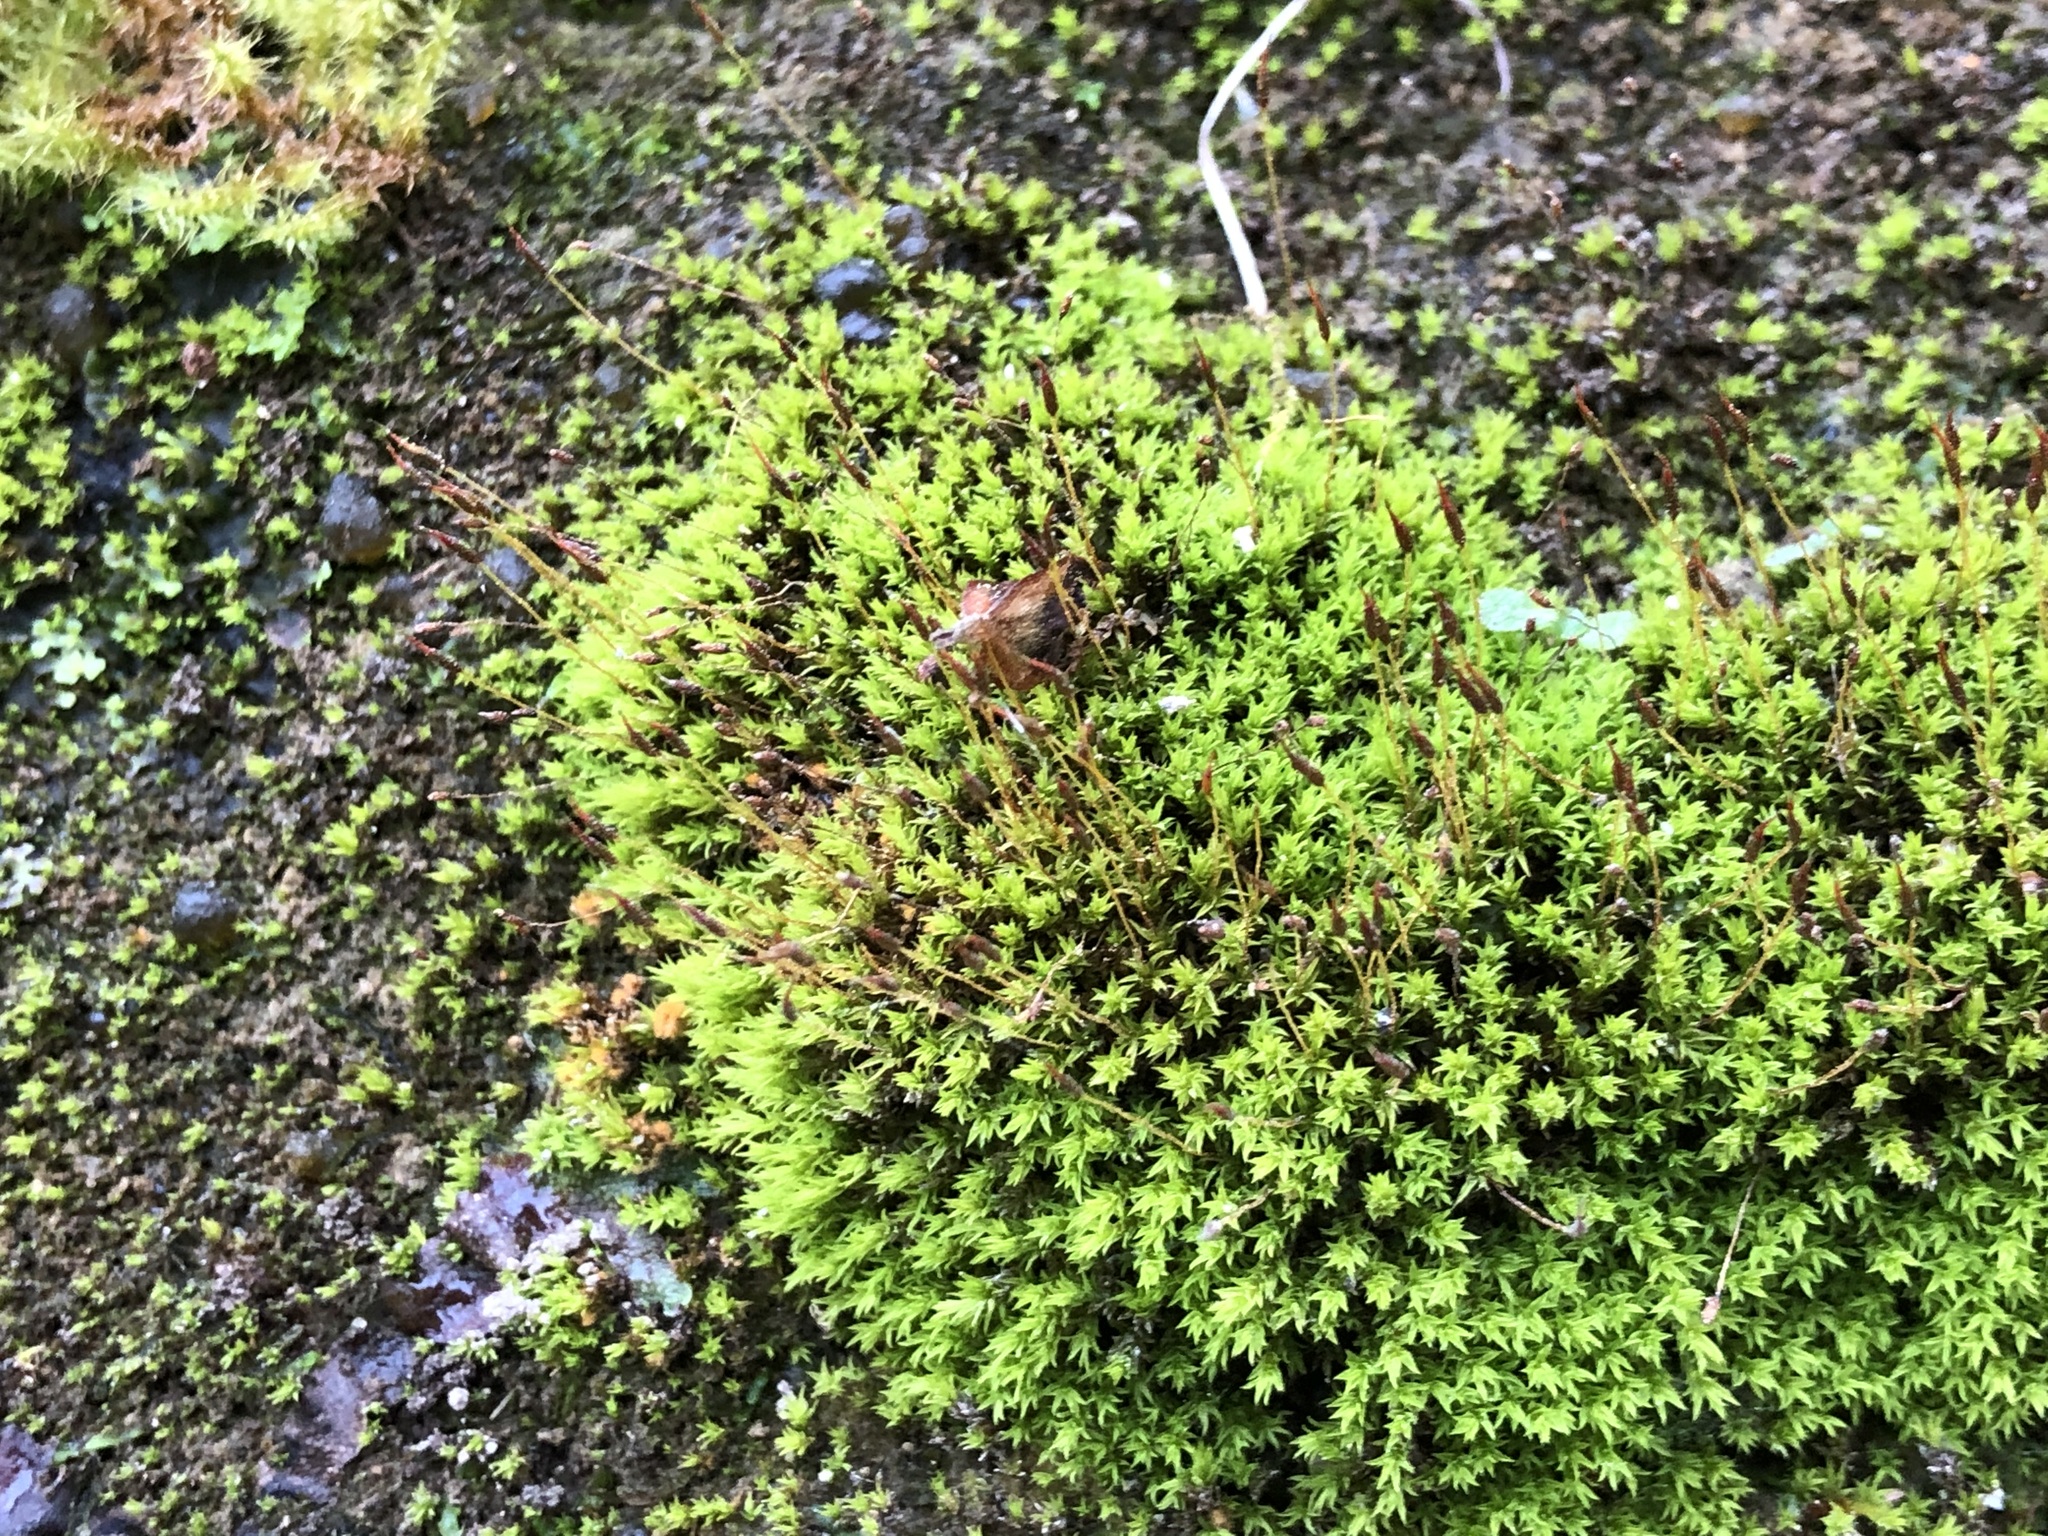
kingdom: Plantae
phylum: Bryophyta
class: Bryopsida
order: Pottiales
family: Pottiaceae
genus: Hydrogonium
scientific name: Hydrogonium croceum
